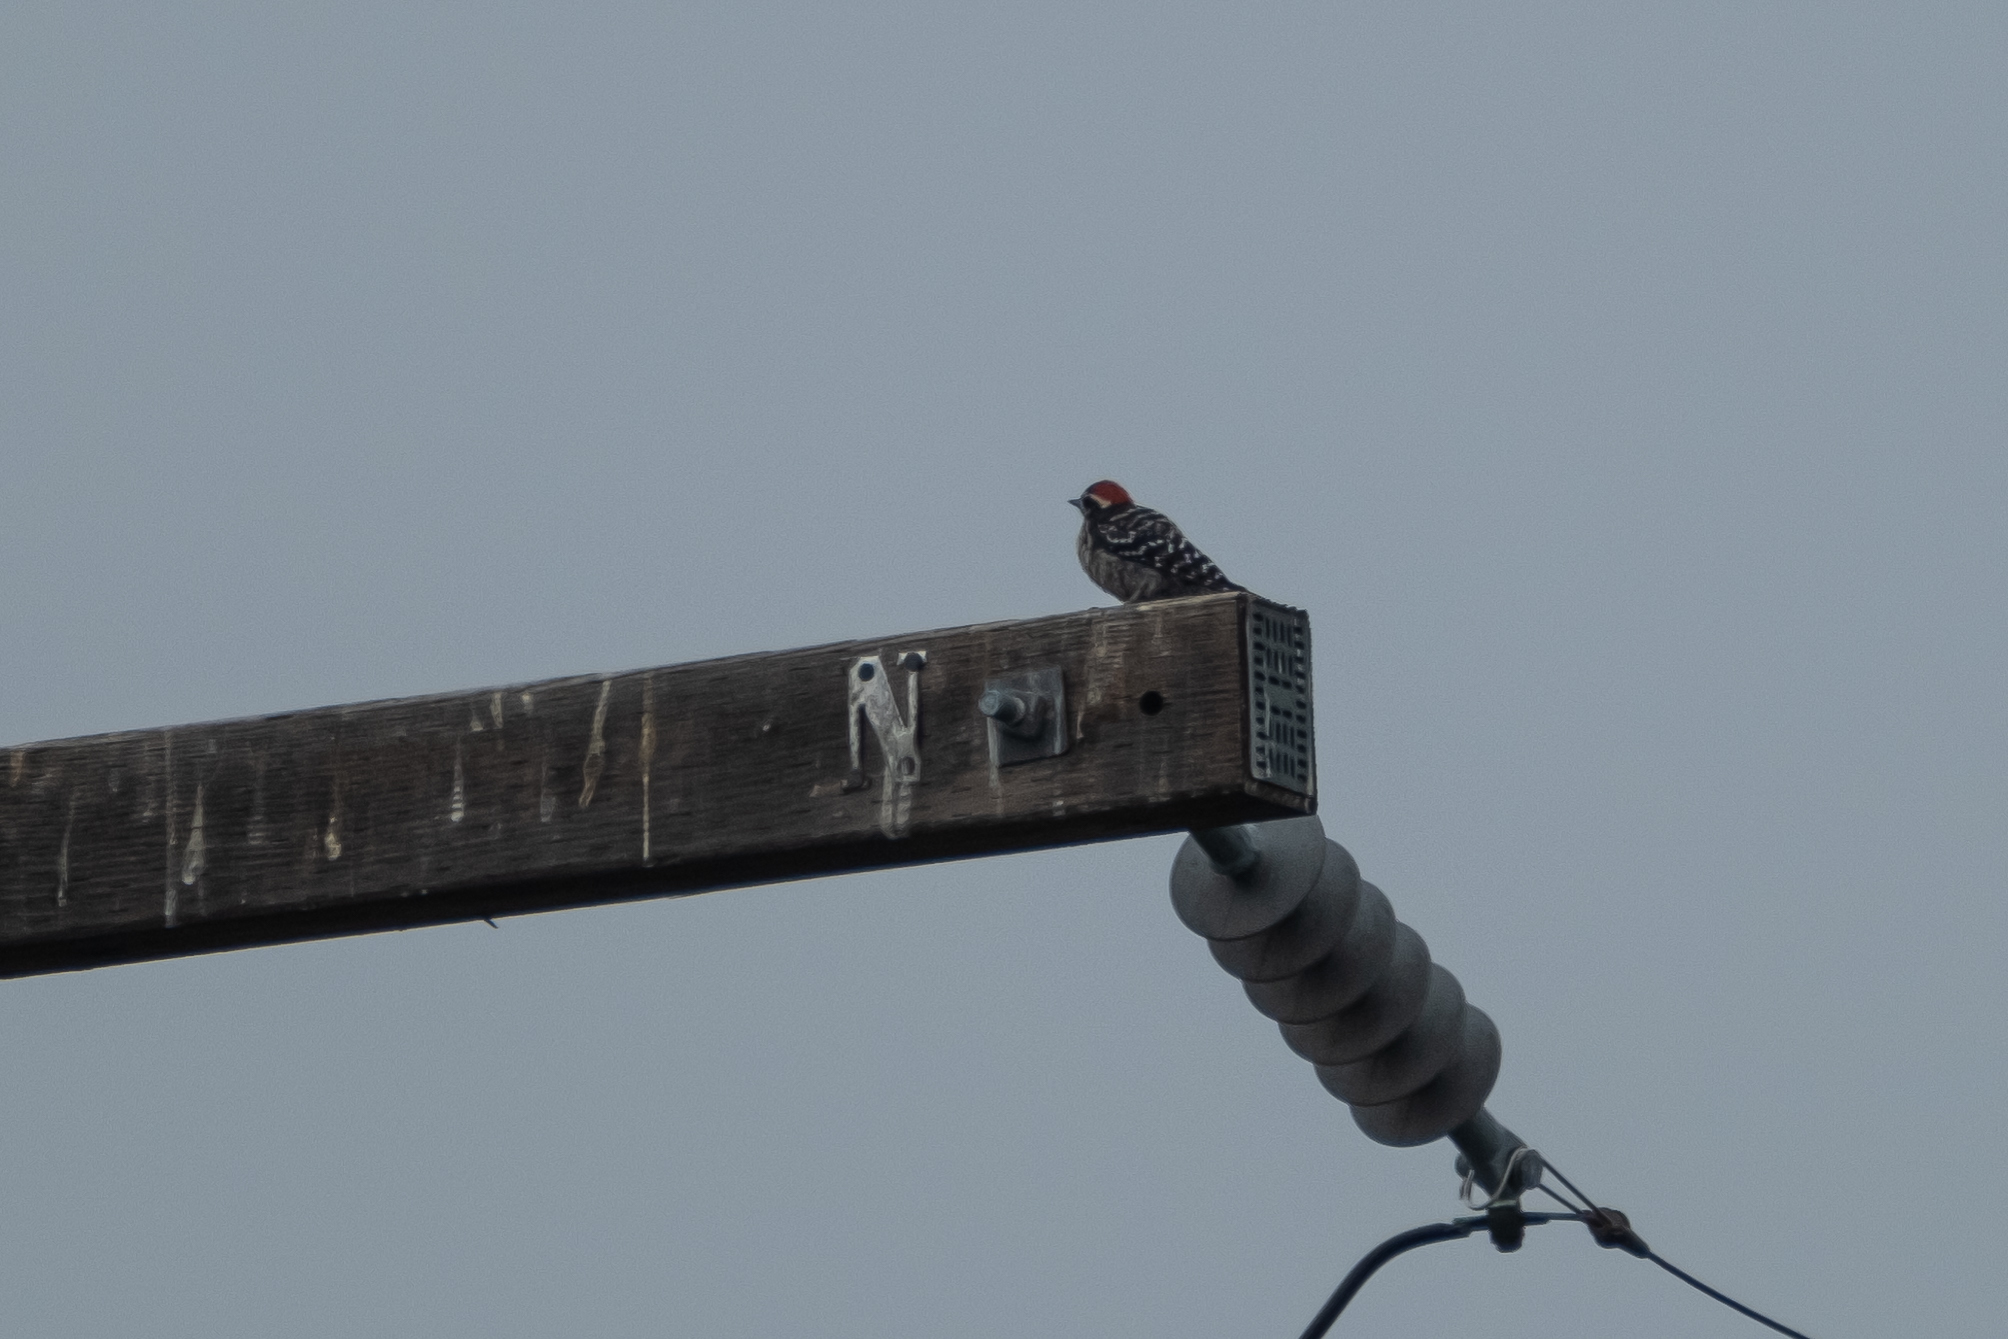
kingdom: Animalia
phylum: Chordata
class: Aves
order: Piciformes
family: Picidae
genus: Dryobates
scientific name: Dryobates nuttallii
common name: Nuttall's woodpecker
